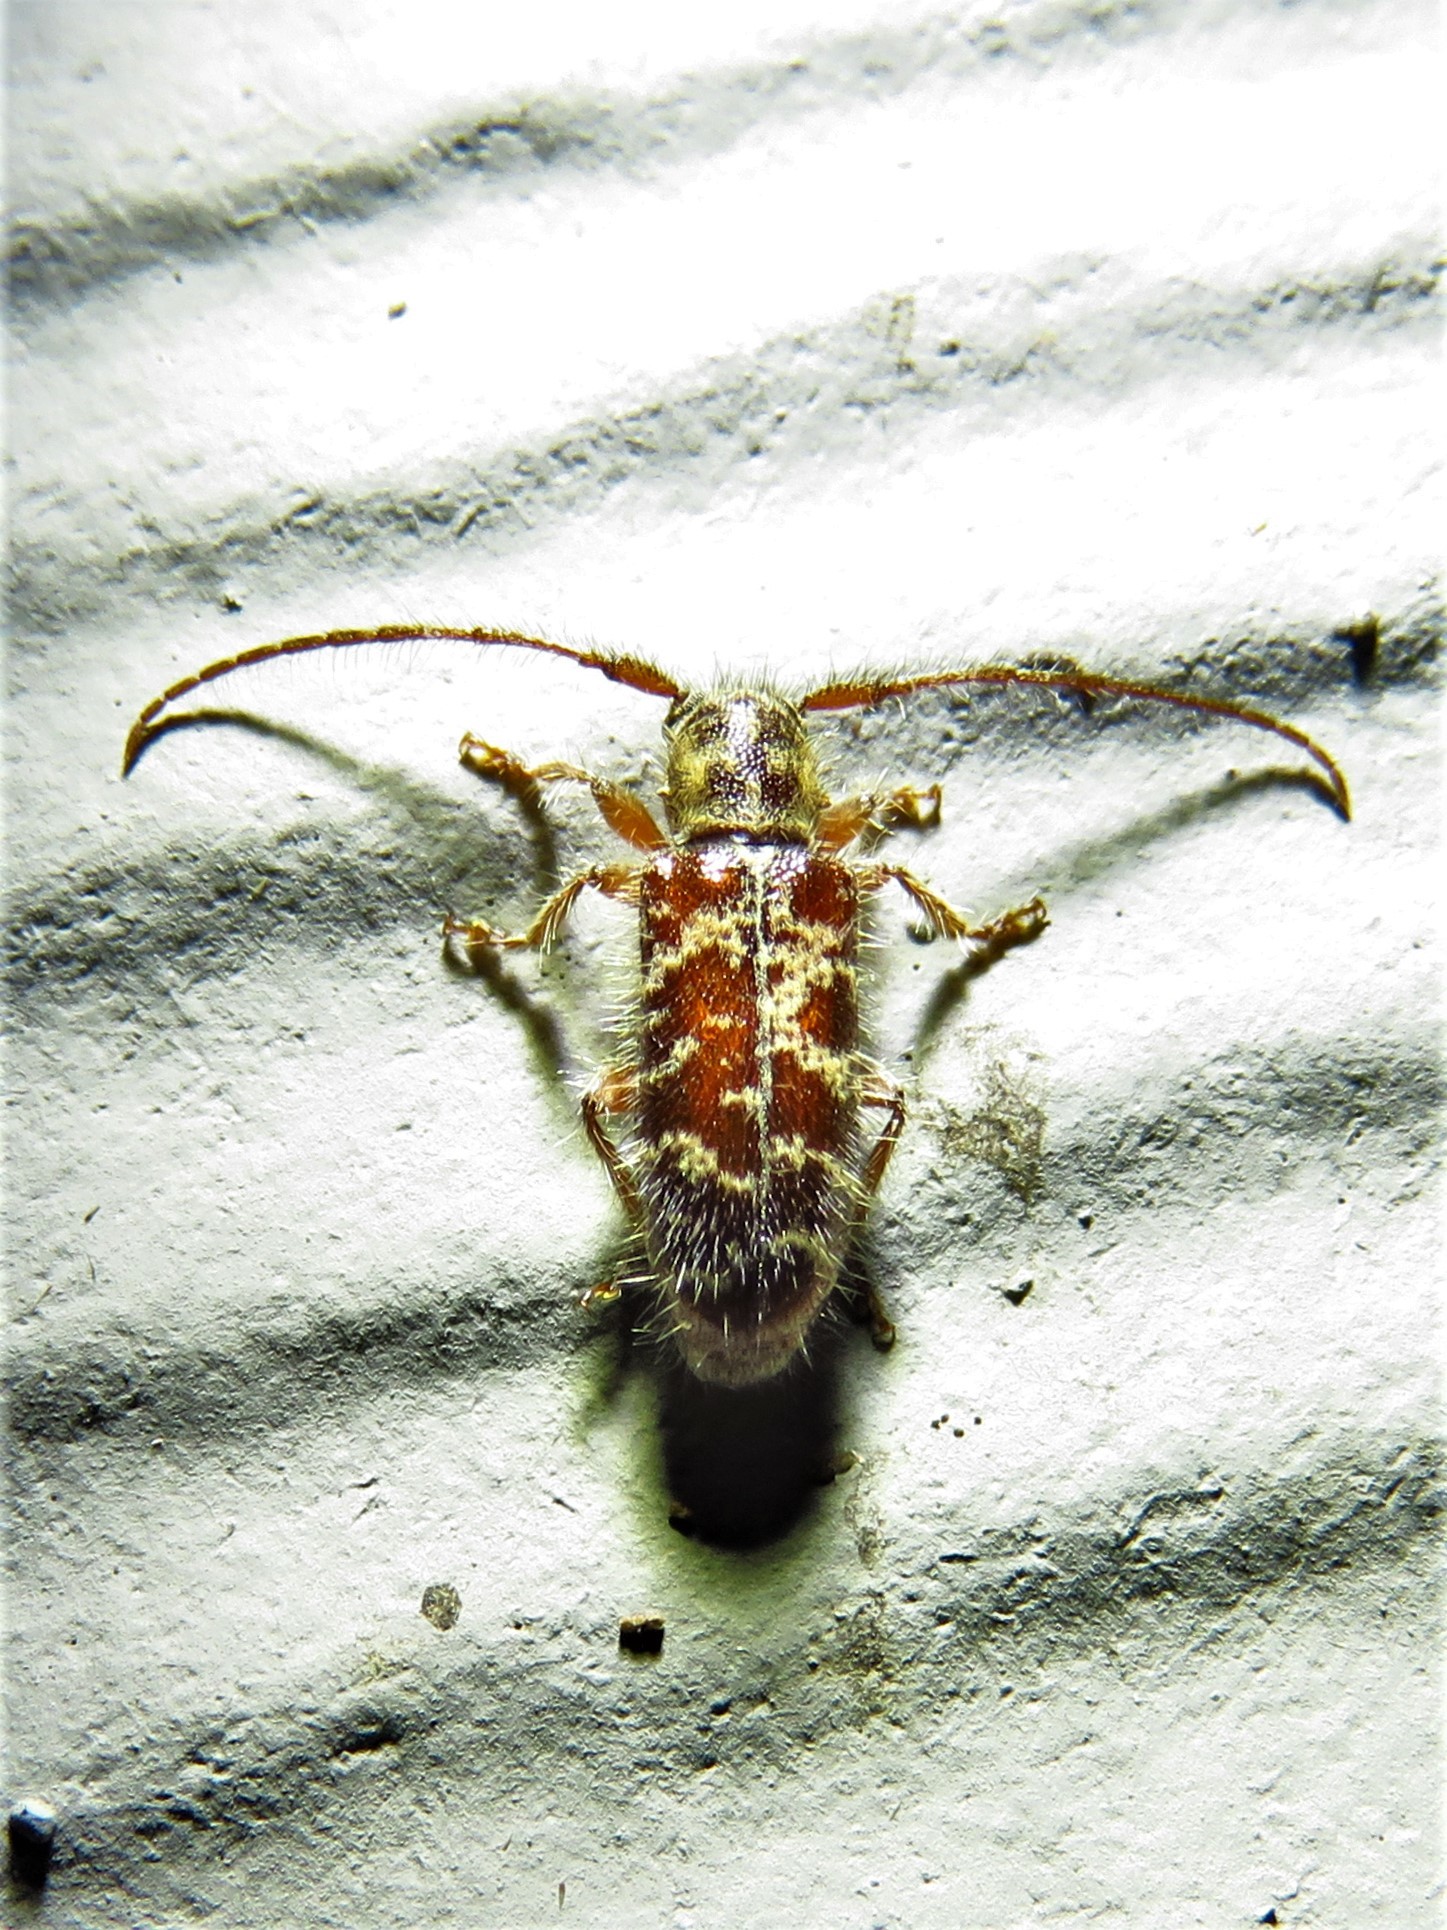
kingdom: Animalia
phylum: Arthropoda
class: Insecta
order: Coleoptera
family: Cerambycidae
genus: Eupogonius
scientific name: Eupogonius tomentosus
